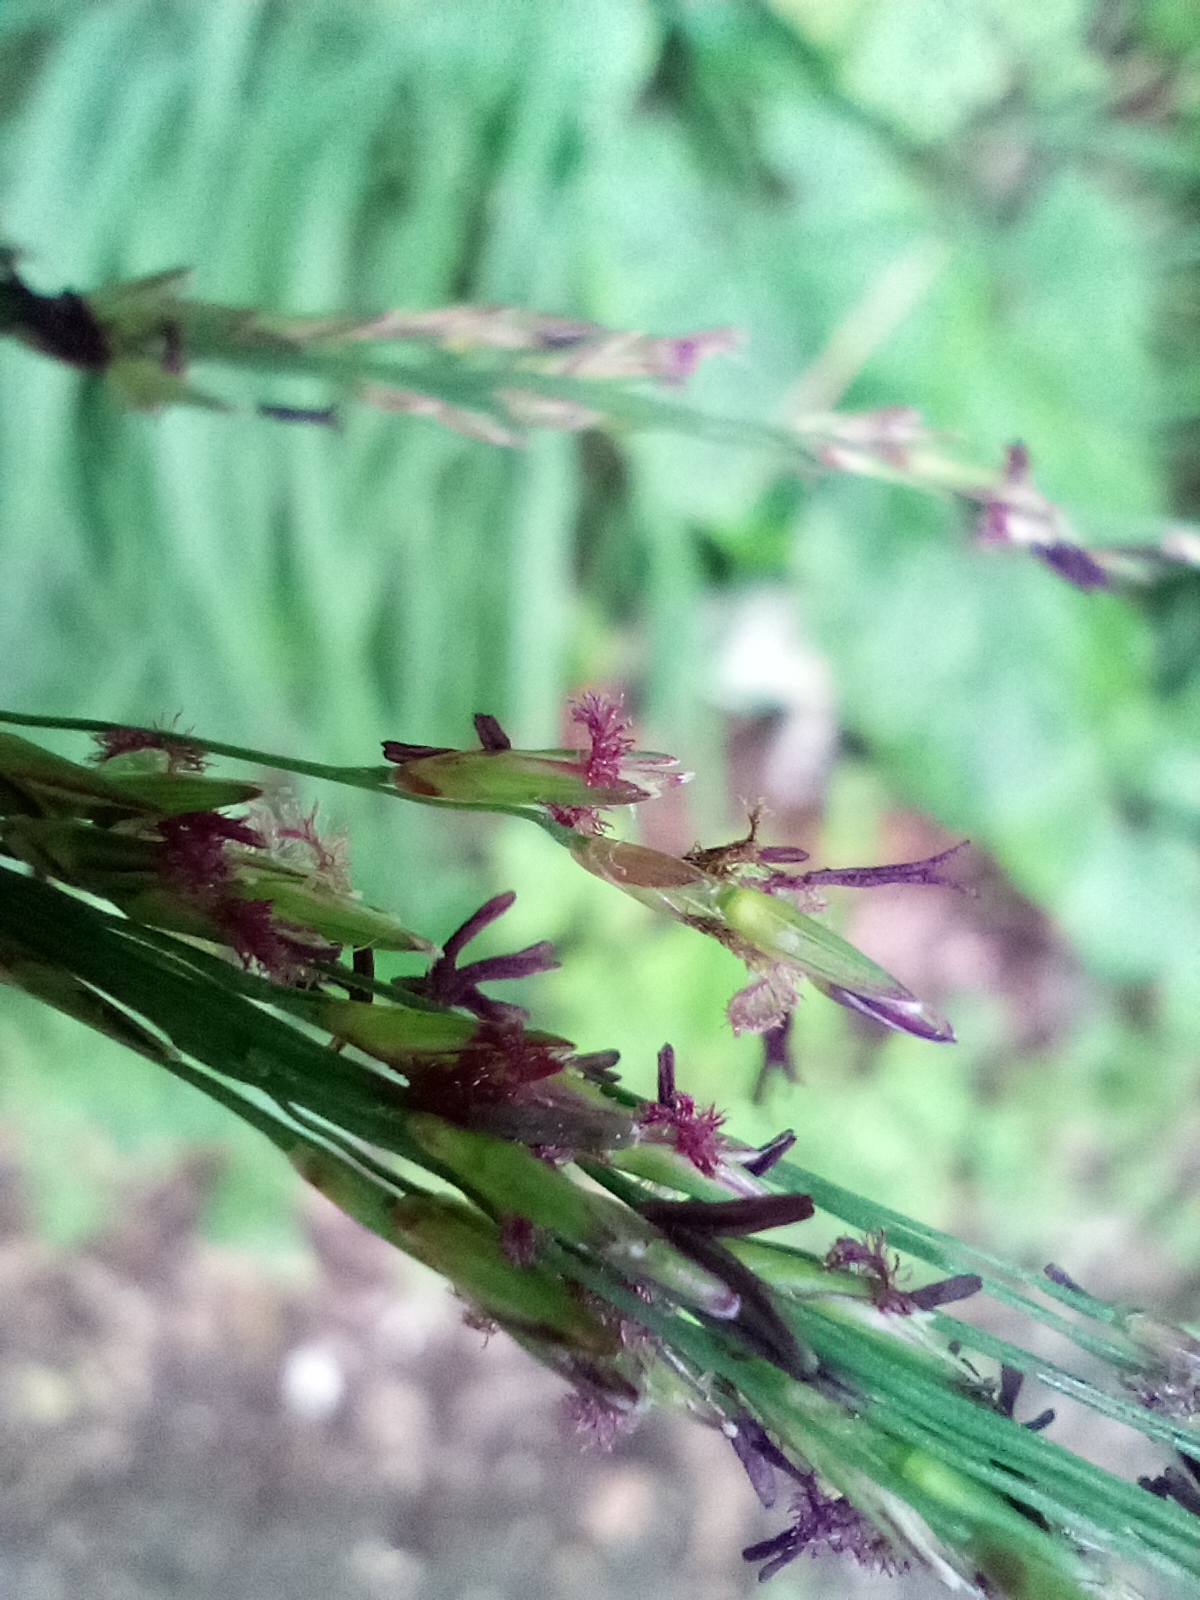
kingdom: Plantae
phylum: Tracheophyta
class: Liliopsida
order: Poales
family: Poaceae
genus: Molinia
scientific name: Molinia caerulea
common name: Purple moor-grass
